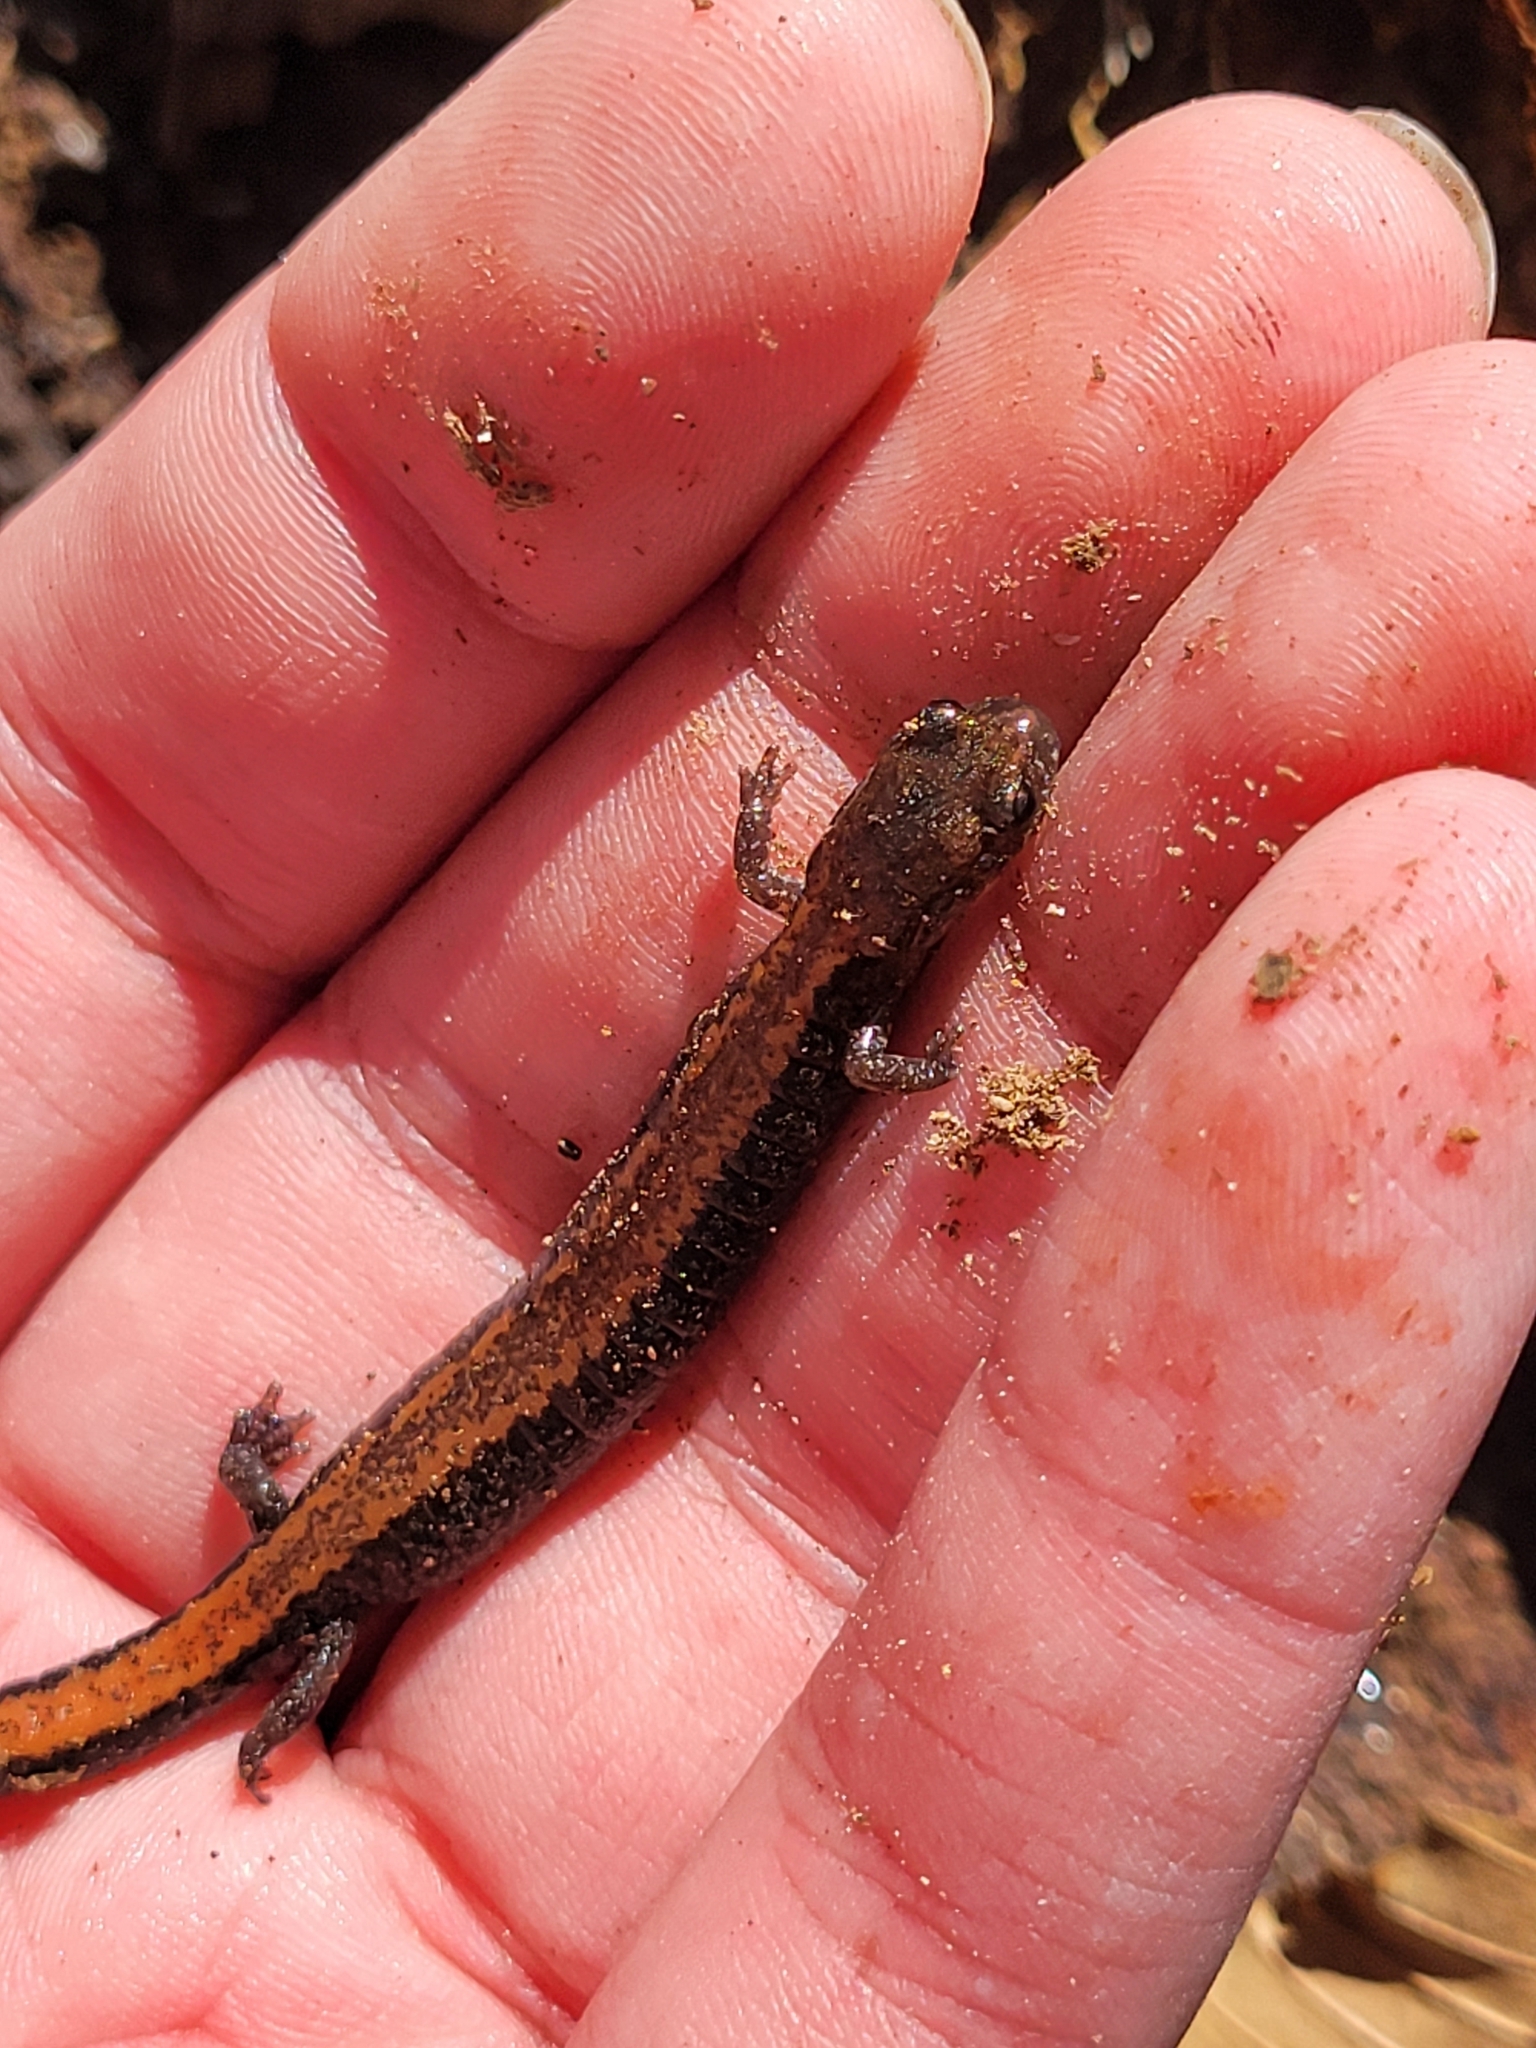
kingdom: Animalia
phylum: Chordata
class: Amphibia
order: Caudata
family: Plethodontidae
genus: Plethodon
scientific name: Plethodon cinereus
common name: Redback salamander
